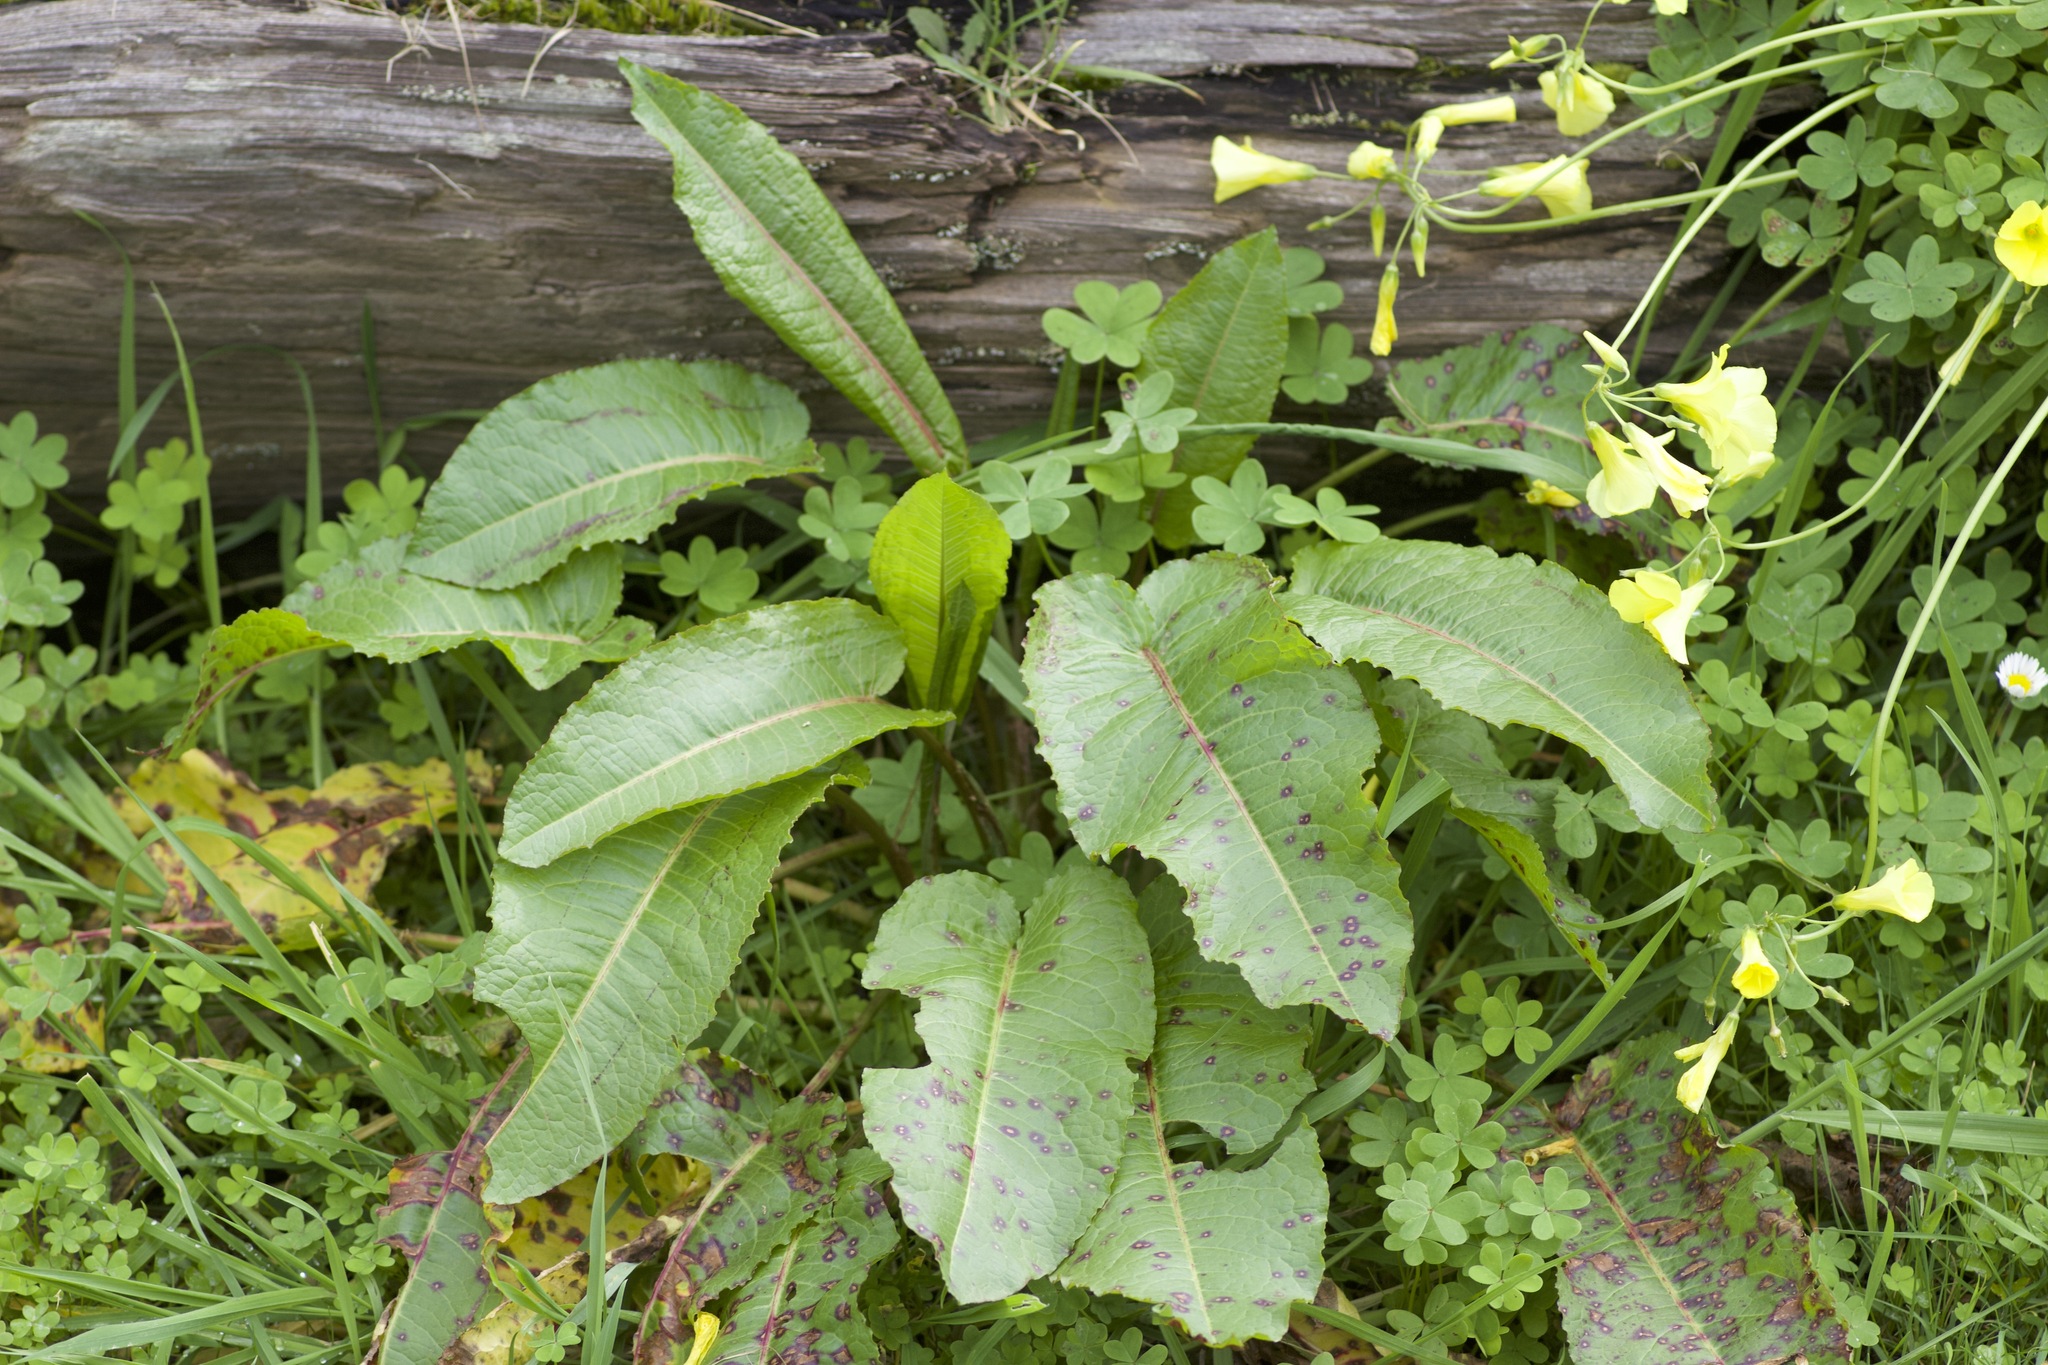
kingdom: Plantae
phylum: Tracheophyta
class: Magnoliopsida
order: Caryophyllales
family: Polygonaceae
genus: Rumex
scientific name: Rumex obtusifolius
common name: Bitter dock
